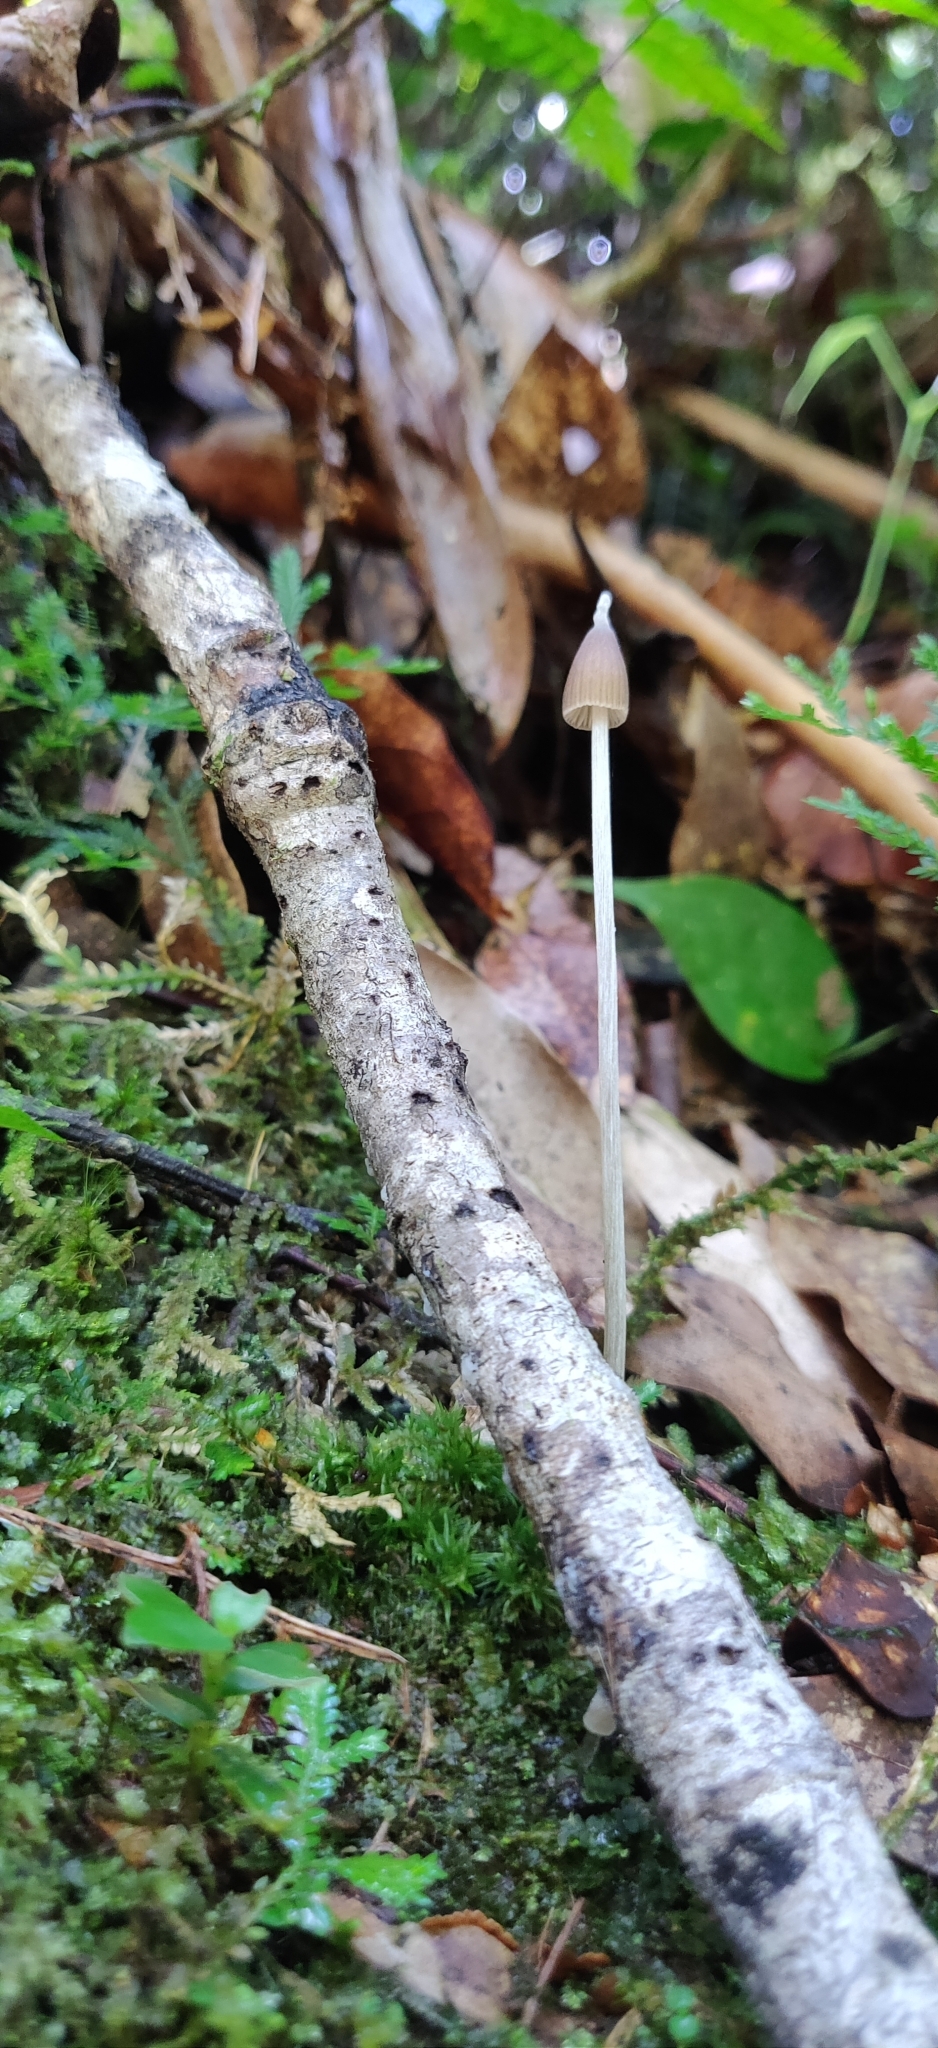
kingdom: Fungi
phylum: Basidiomycota
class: Agaricomycetes
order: Agaricales
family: Entolomataceae
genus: Entoloma
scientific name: Entoloma dragonosporum
